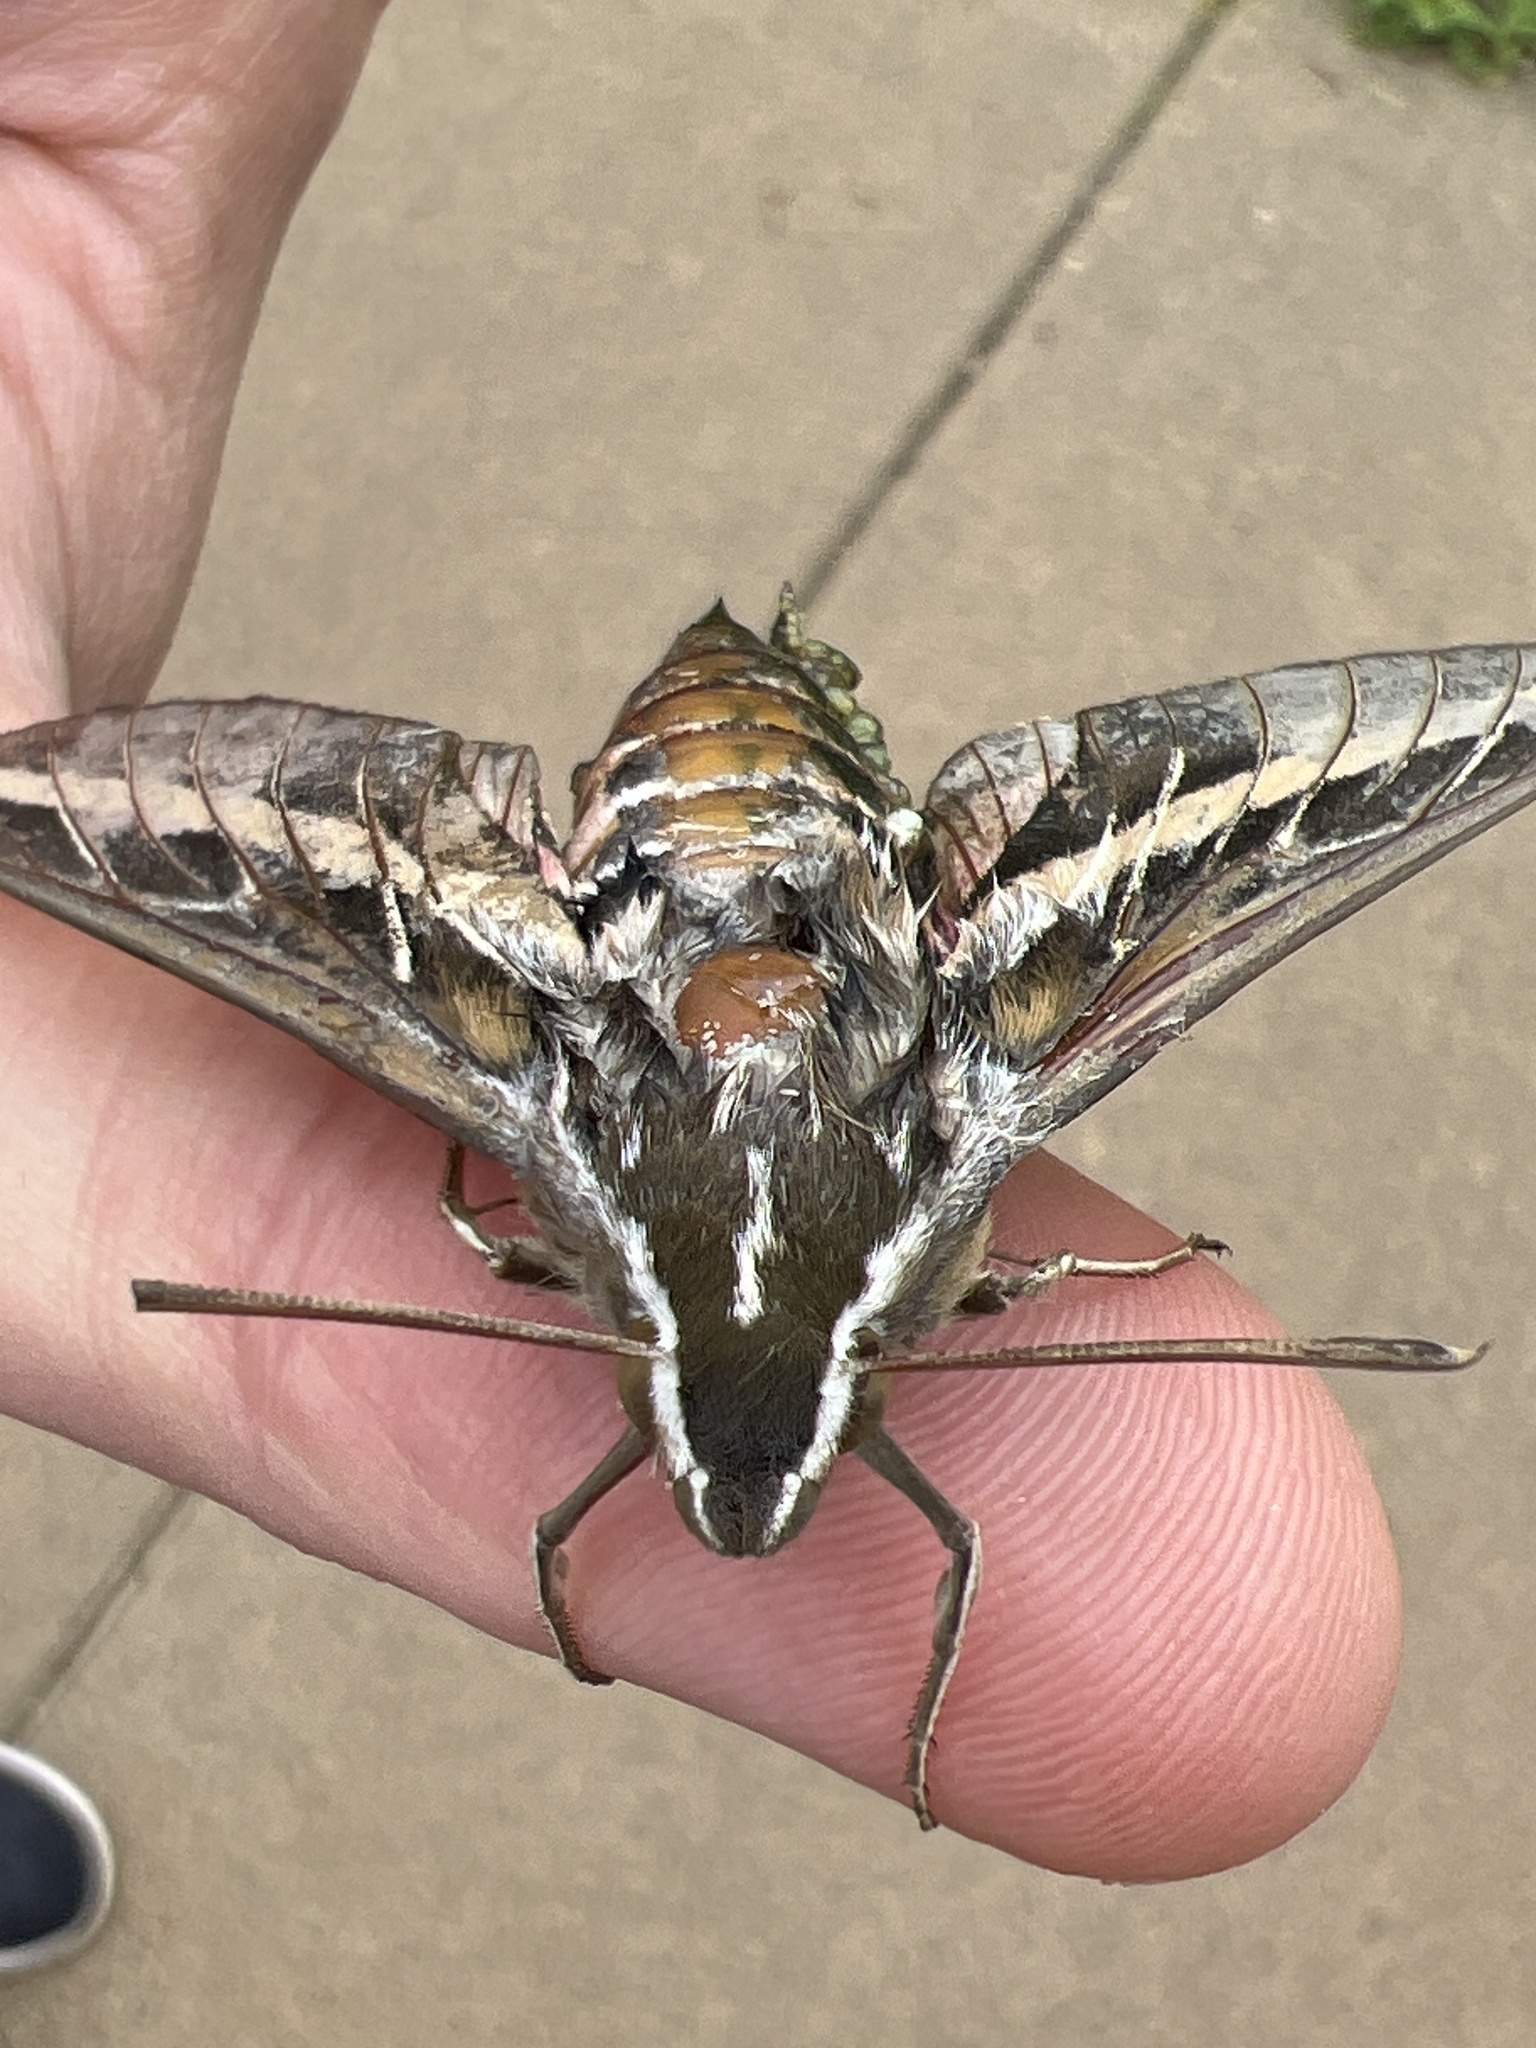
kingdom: Animalia
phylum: Arthropoda
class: Insecta
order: Lepidoptera
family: Sphingidae
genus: Hyles
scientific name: Hyles lineata
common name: White-lined sphinx
